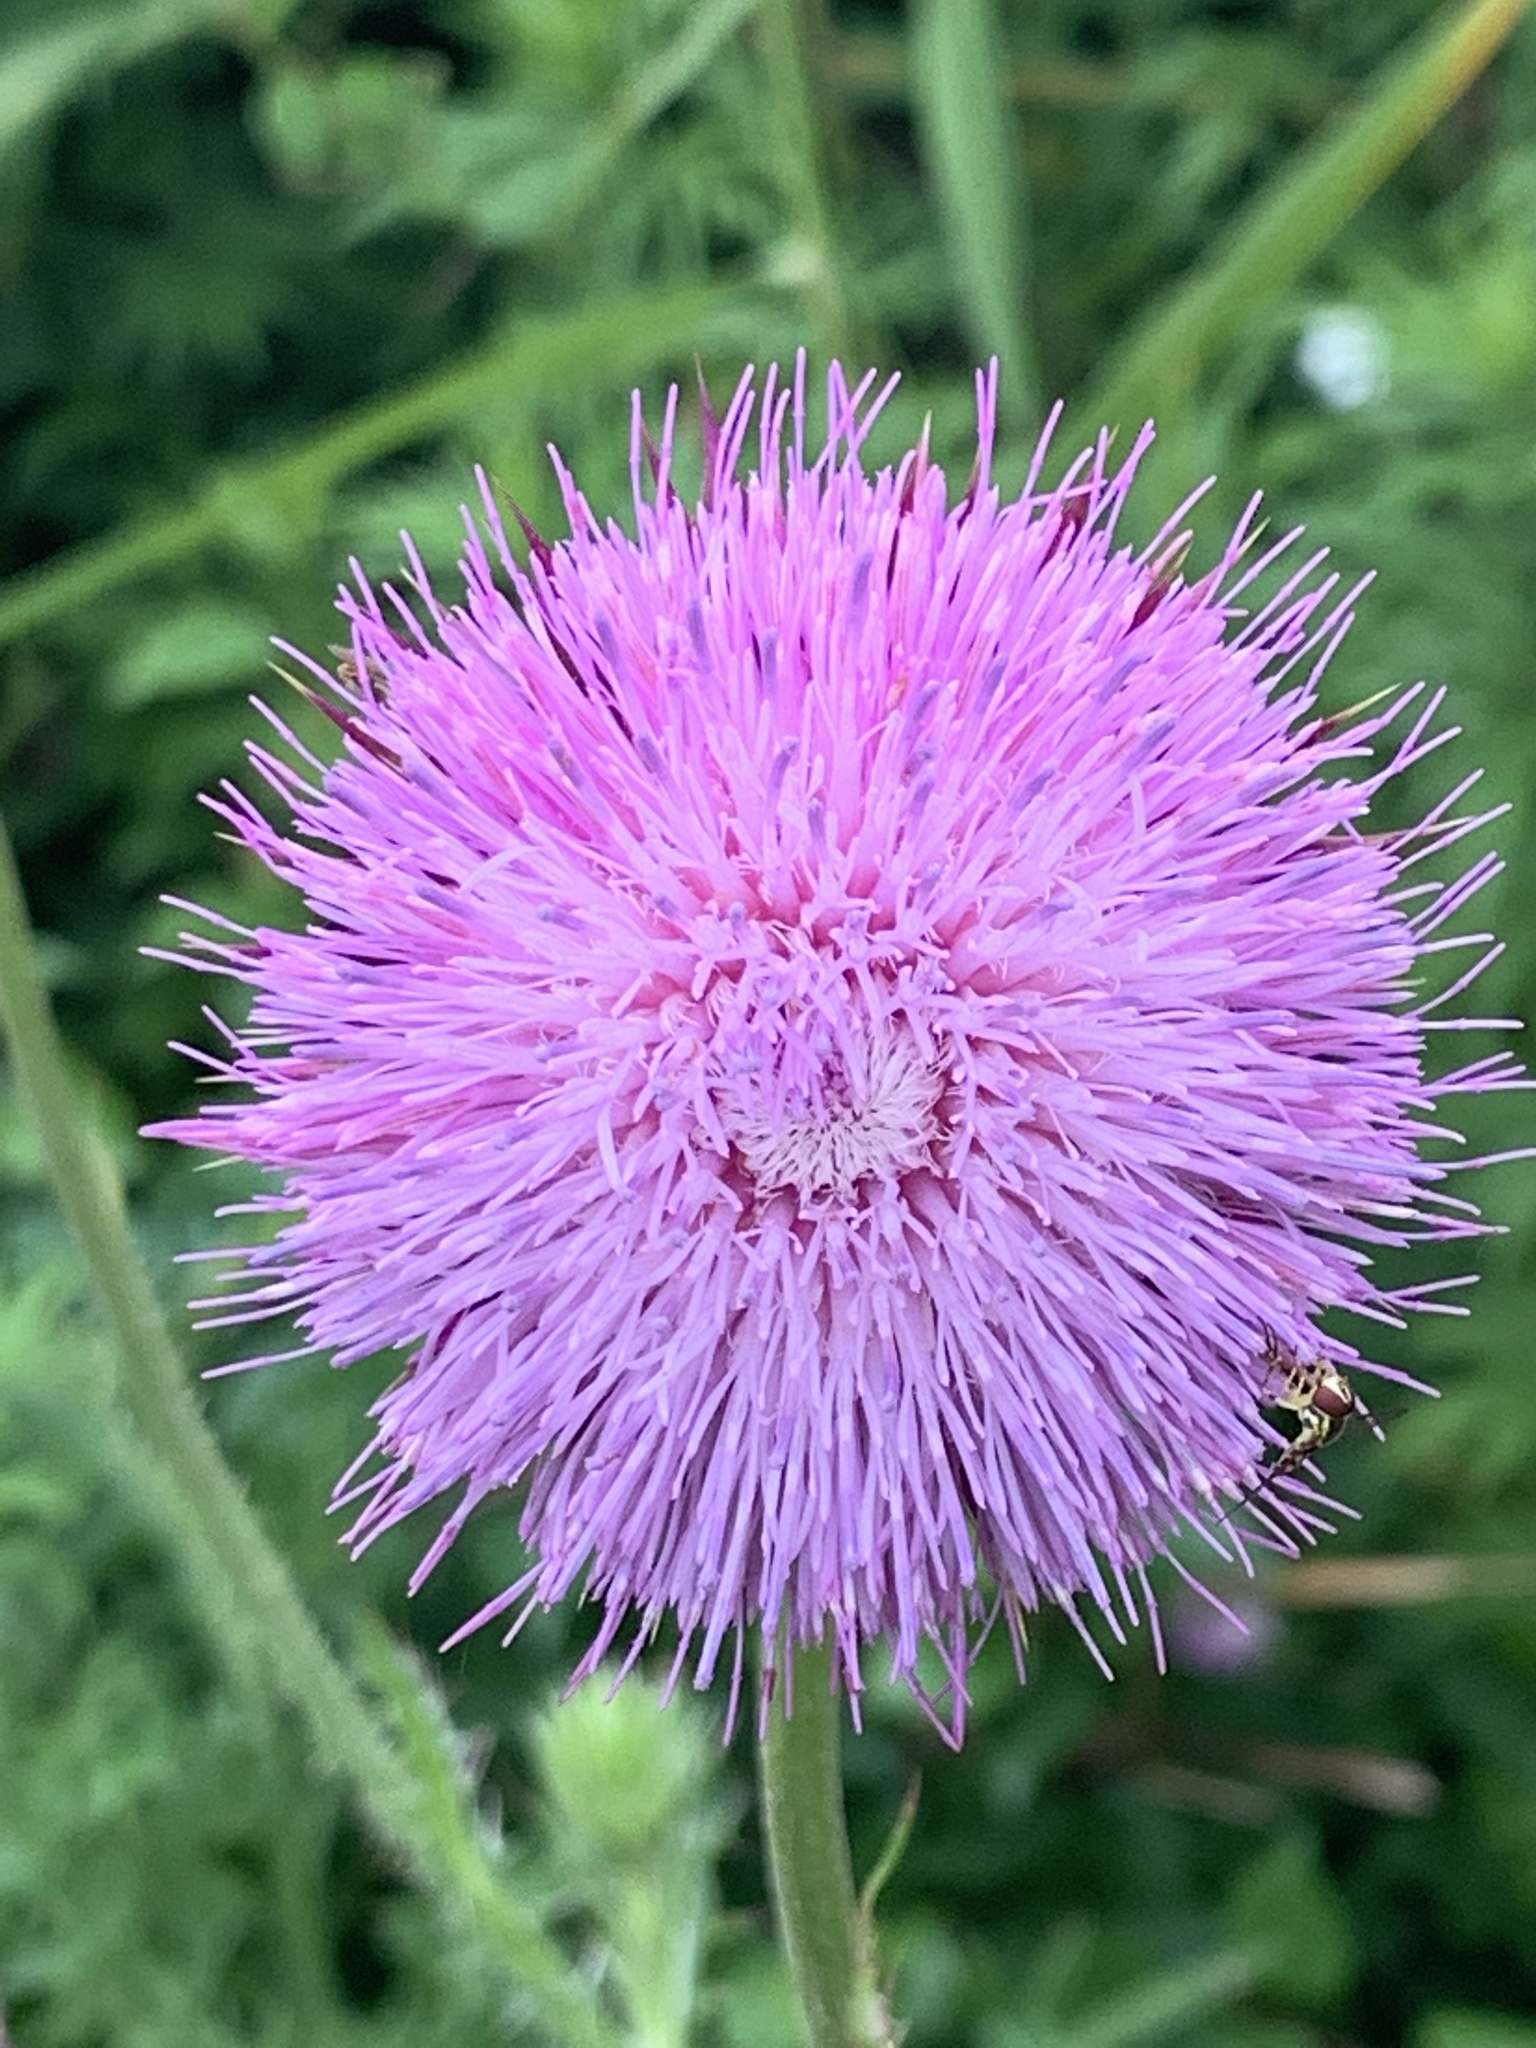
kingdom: Plantae
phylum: Tracheophyta
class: Magnoliopsida
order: Asterales
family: Asteraceae
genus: Carduus
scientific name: Carduus nutans
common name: Musk thistle
